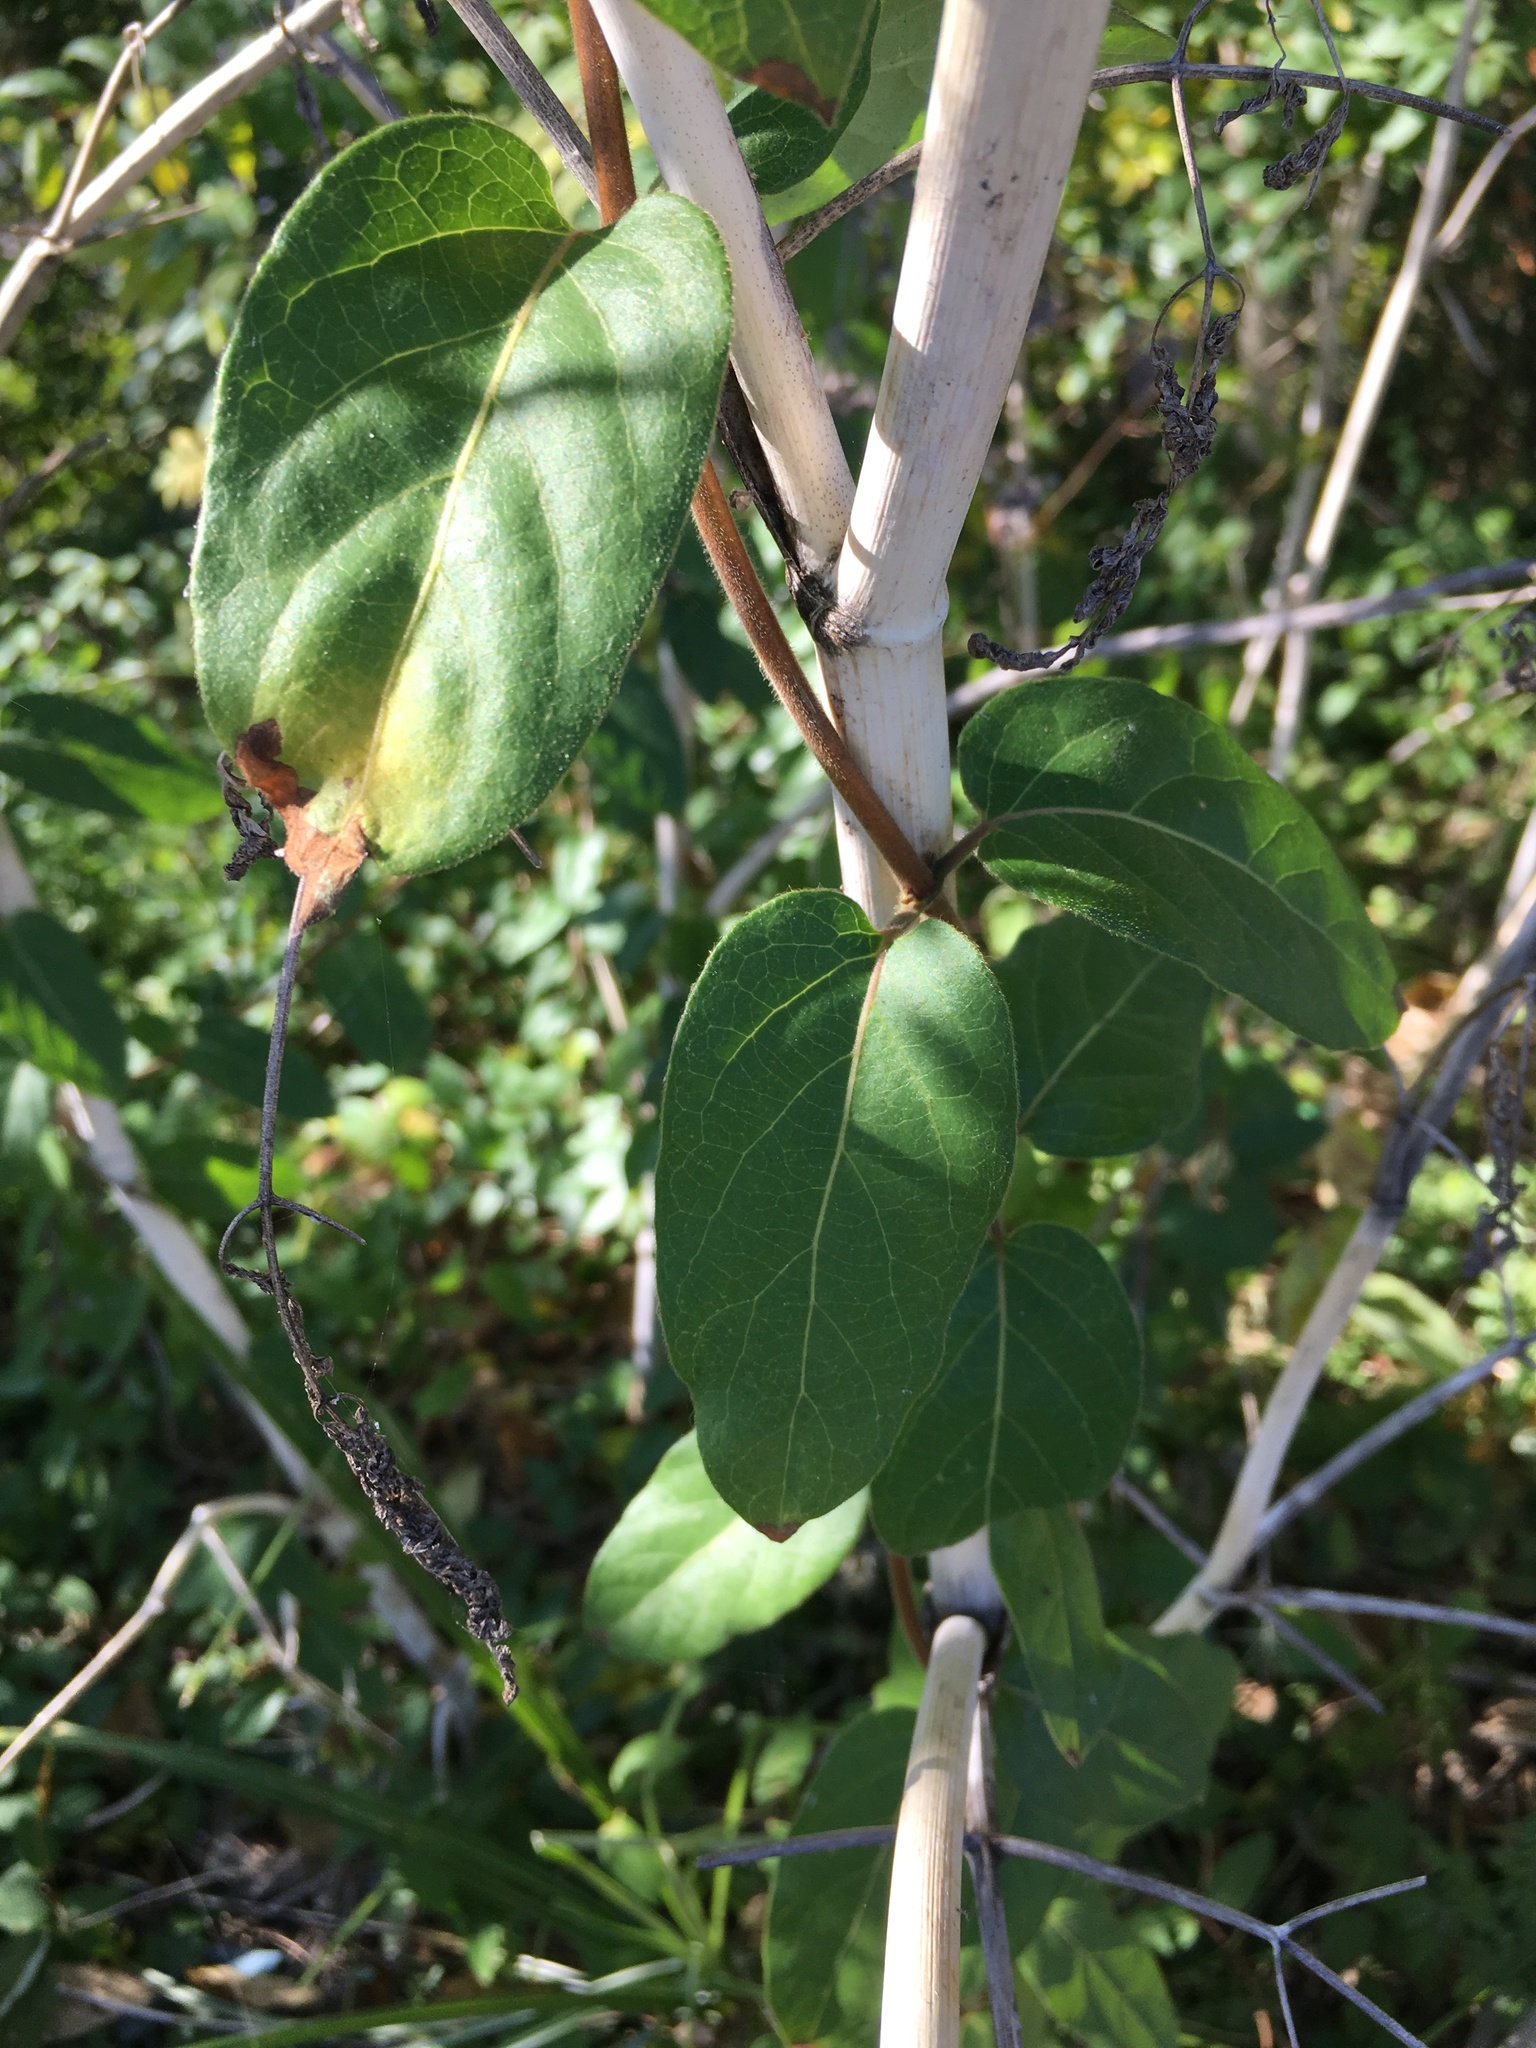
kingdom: Plantae
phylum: Tracheophyta
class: Magnoliopsida
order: Dipsacales
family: Caprifoliaceae
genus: Lonicera
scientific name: Lonicera japonica
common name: Japanese honeysuckle
